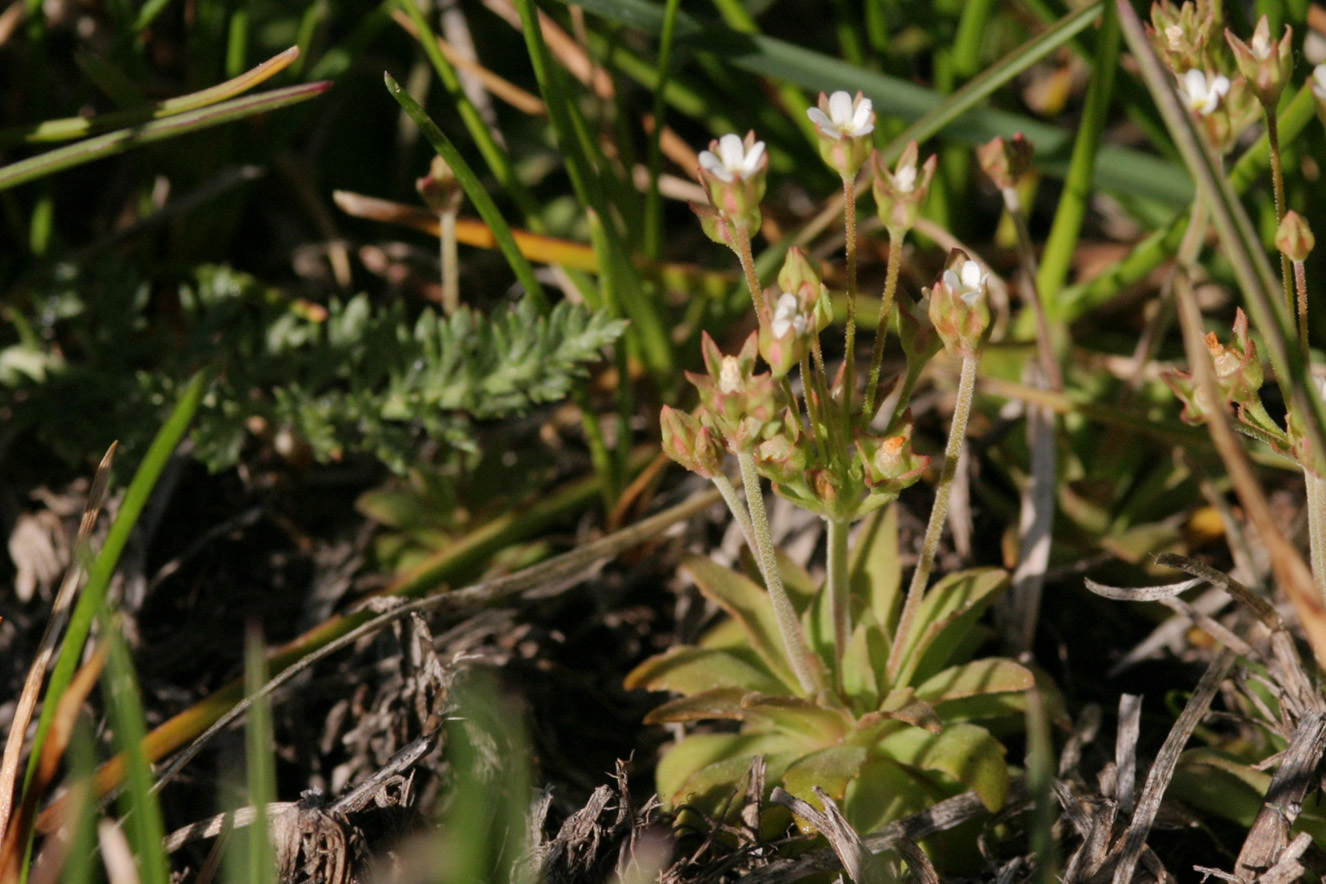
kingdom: Plantae
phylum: Tracheophyta
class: Magnoliopsida
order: Ericales
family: Primulaceae
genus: Androsace
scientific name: Androsace occidentalis
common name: West rock-jasmine
